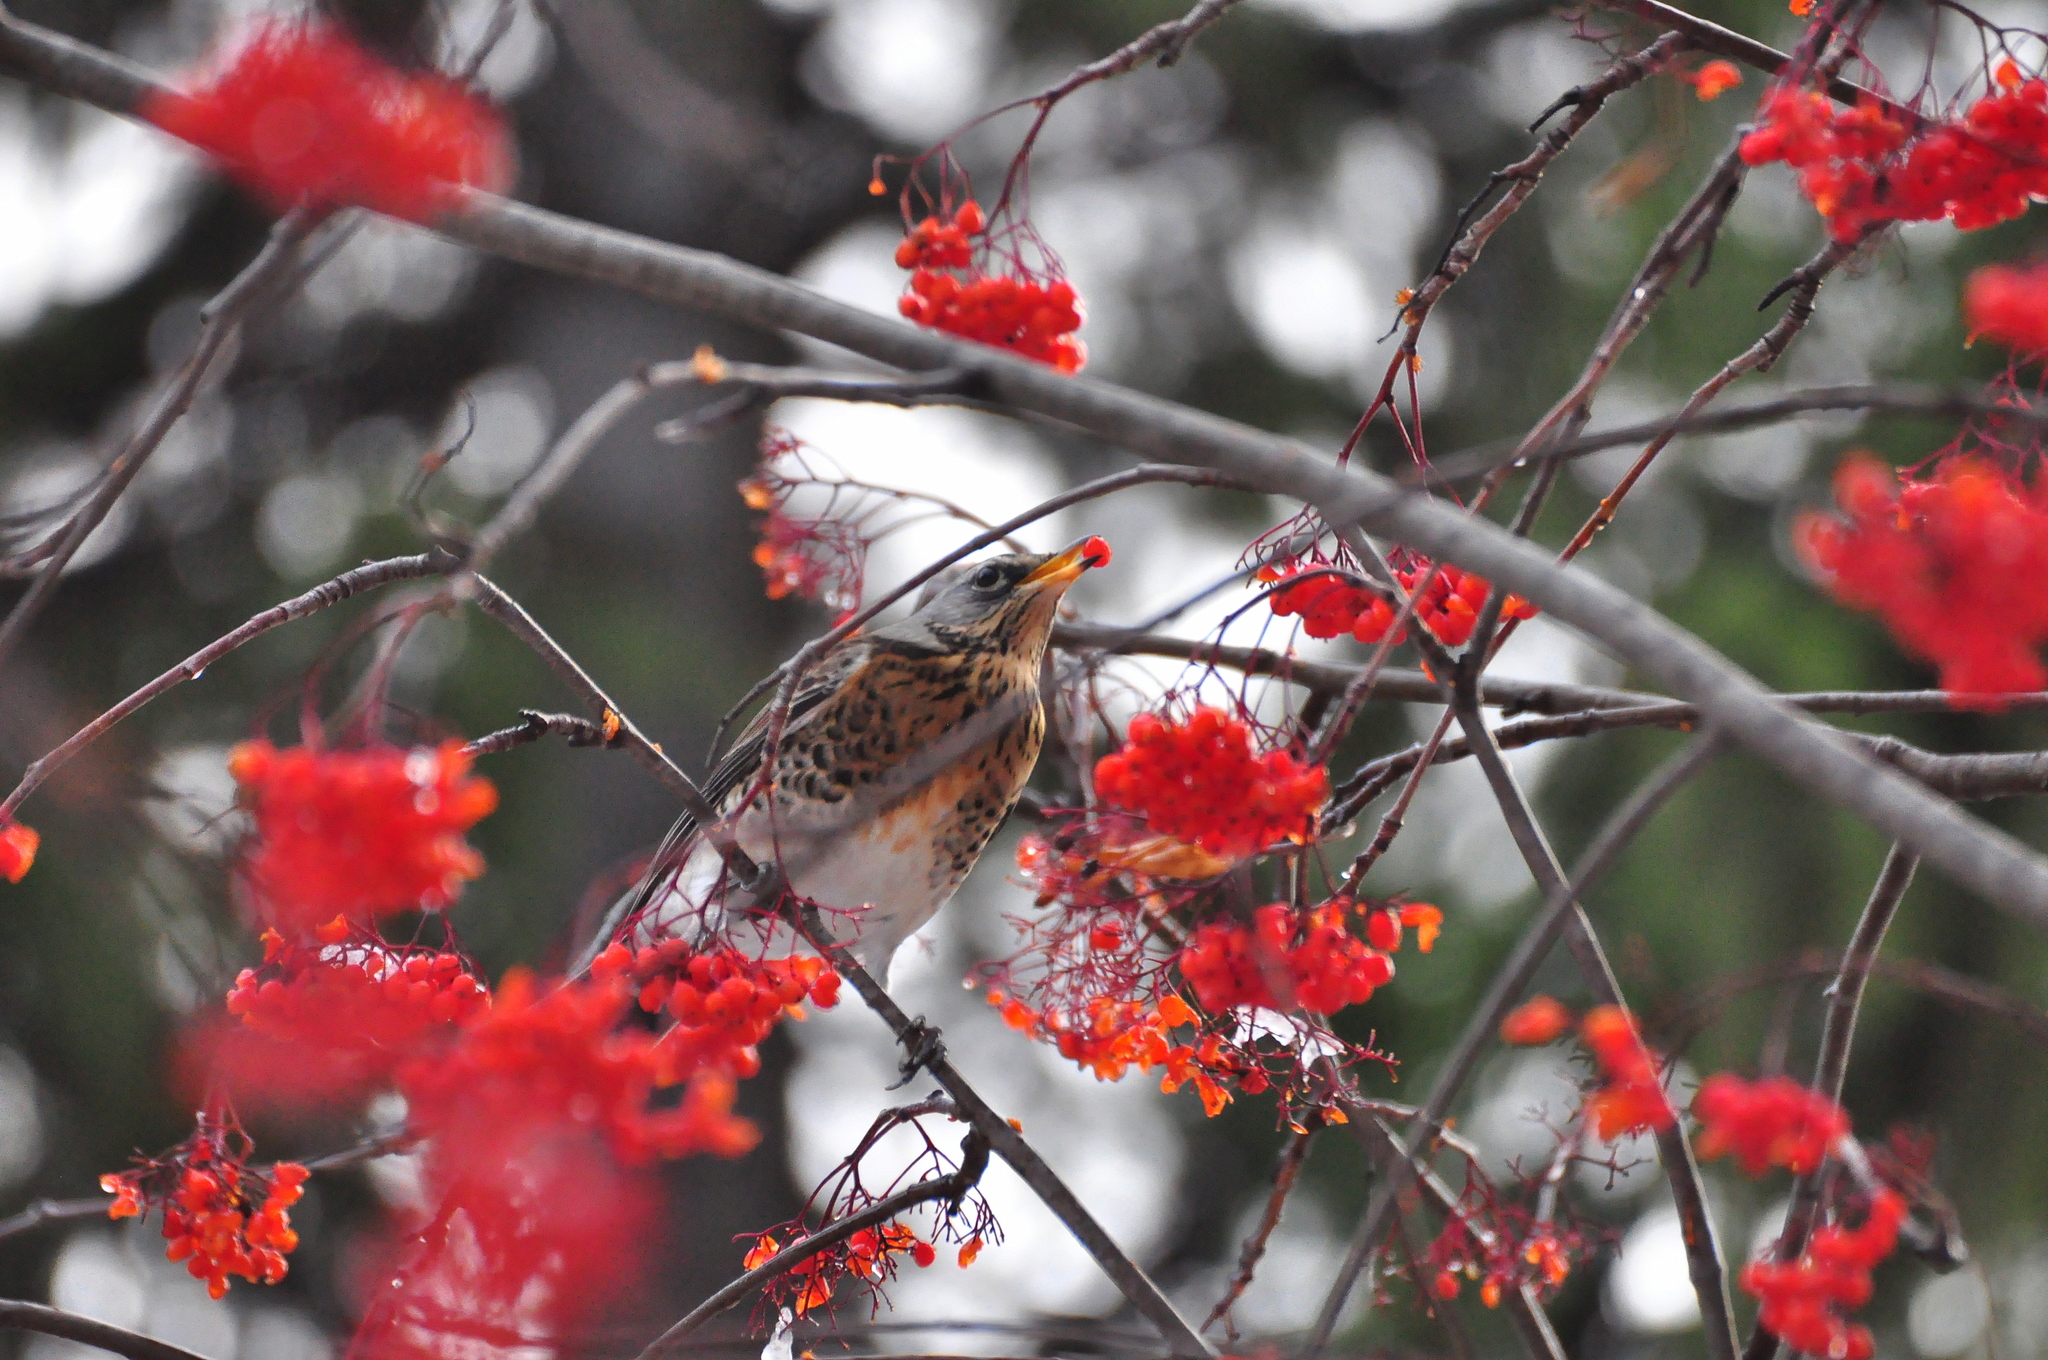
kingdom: Animalia
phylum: Chordata
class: Aves
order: Passeriformes
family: Turdidae
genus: Turdus
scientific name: Turdus pilaris
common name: Fieldfare
